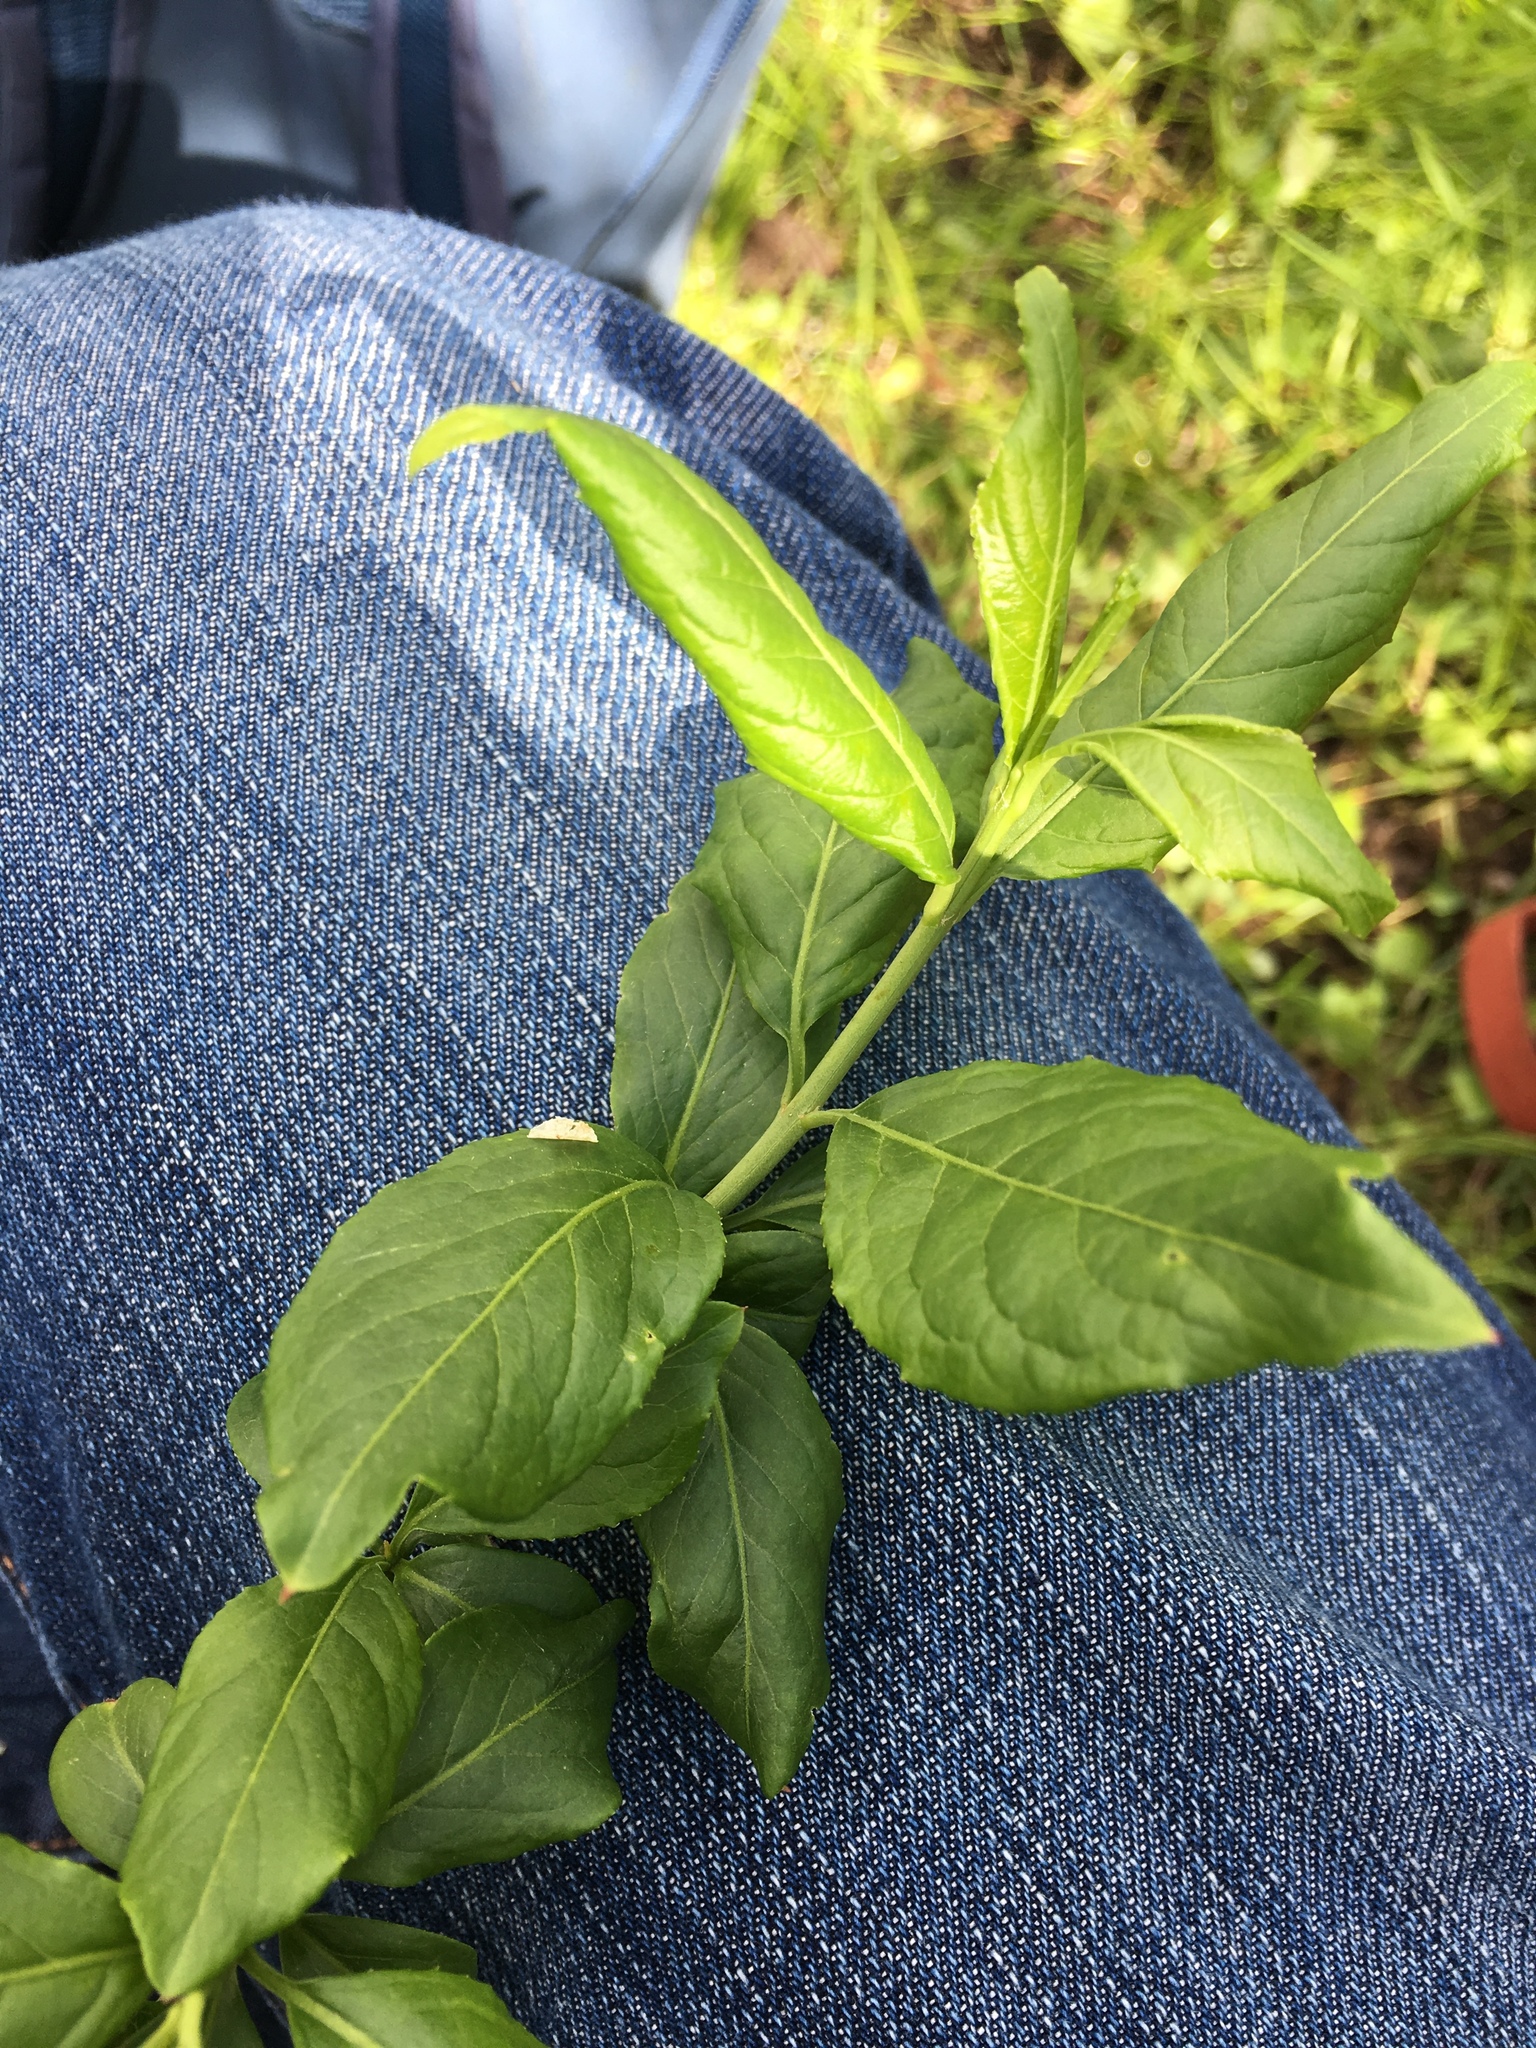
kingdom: Plantae
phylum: Tracheophyta
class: Magnoliopsida
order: Celastrales
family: Celastraceae
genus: Euonymus
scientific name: Euonymus europaeus
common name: Spindle
